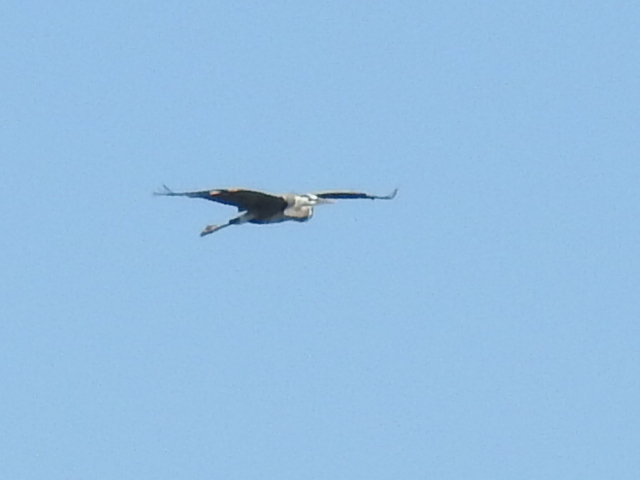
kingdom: Animalia
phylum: Chordata
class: Aves
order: Pelecaniformes
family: Ardeidae
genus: Ardea
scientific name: Ardea herodias
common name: Great blue heron
